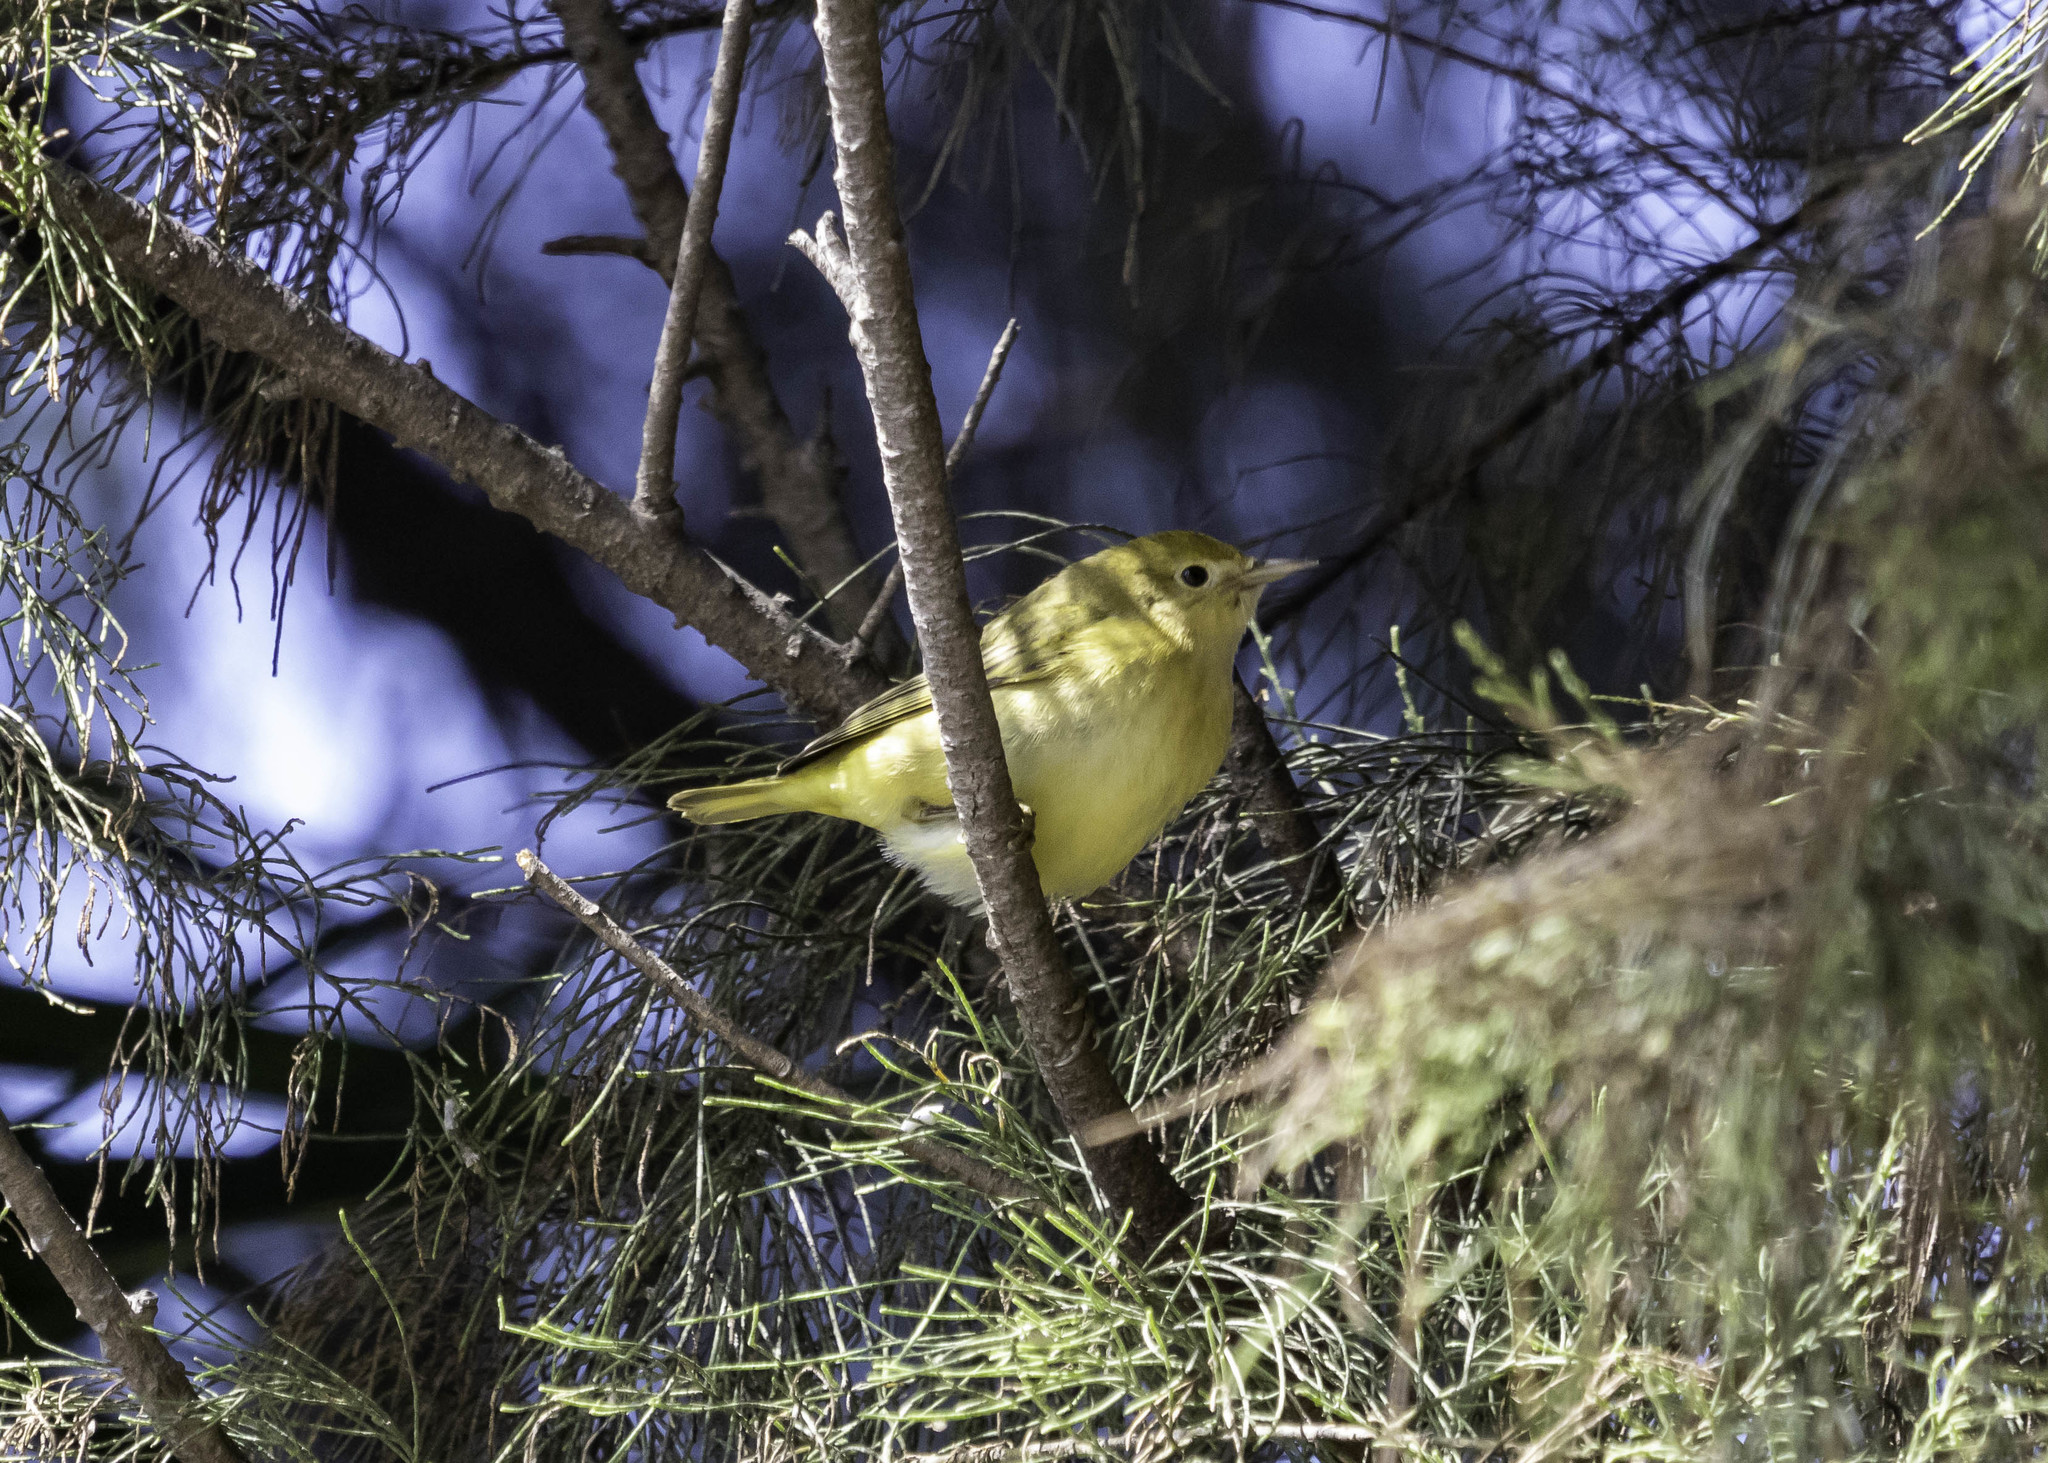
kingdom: Animalia
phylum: Chordata
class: Aves
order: Passeriformes
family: Parulidae
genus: Setophaga
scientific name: Setophaga petechia
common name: Yellow warbler
